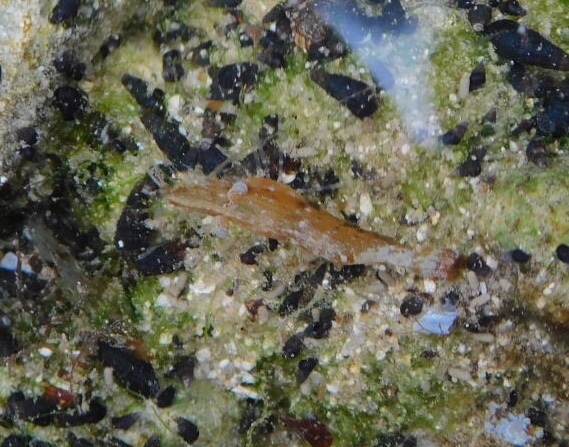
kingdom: Animalia
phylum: Arthropoda
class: Malacostraca
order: Decapoda
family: Hippolytidae
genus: Latreutes
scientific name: Latreutes fucorum
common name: Slender sargassum shrimp
